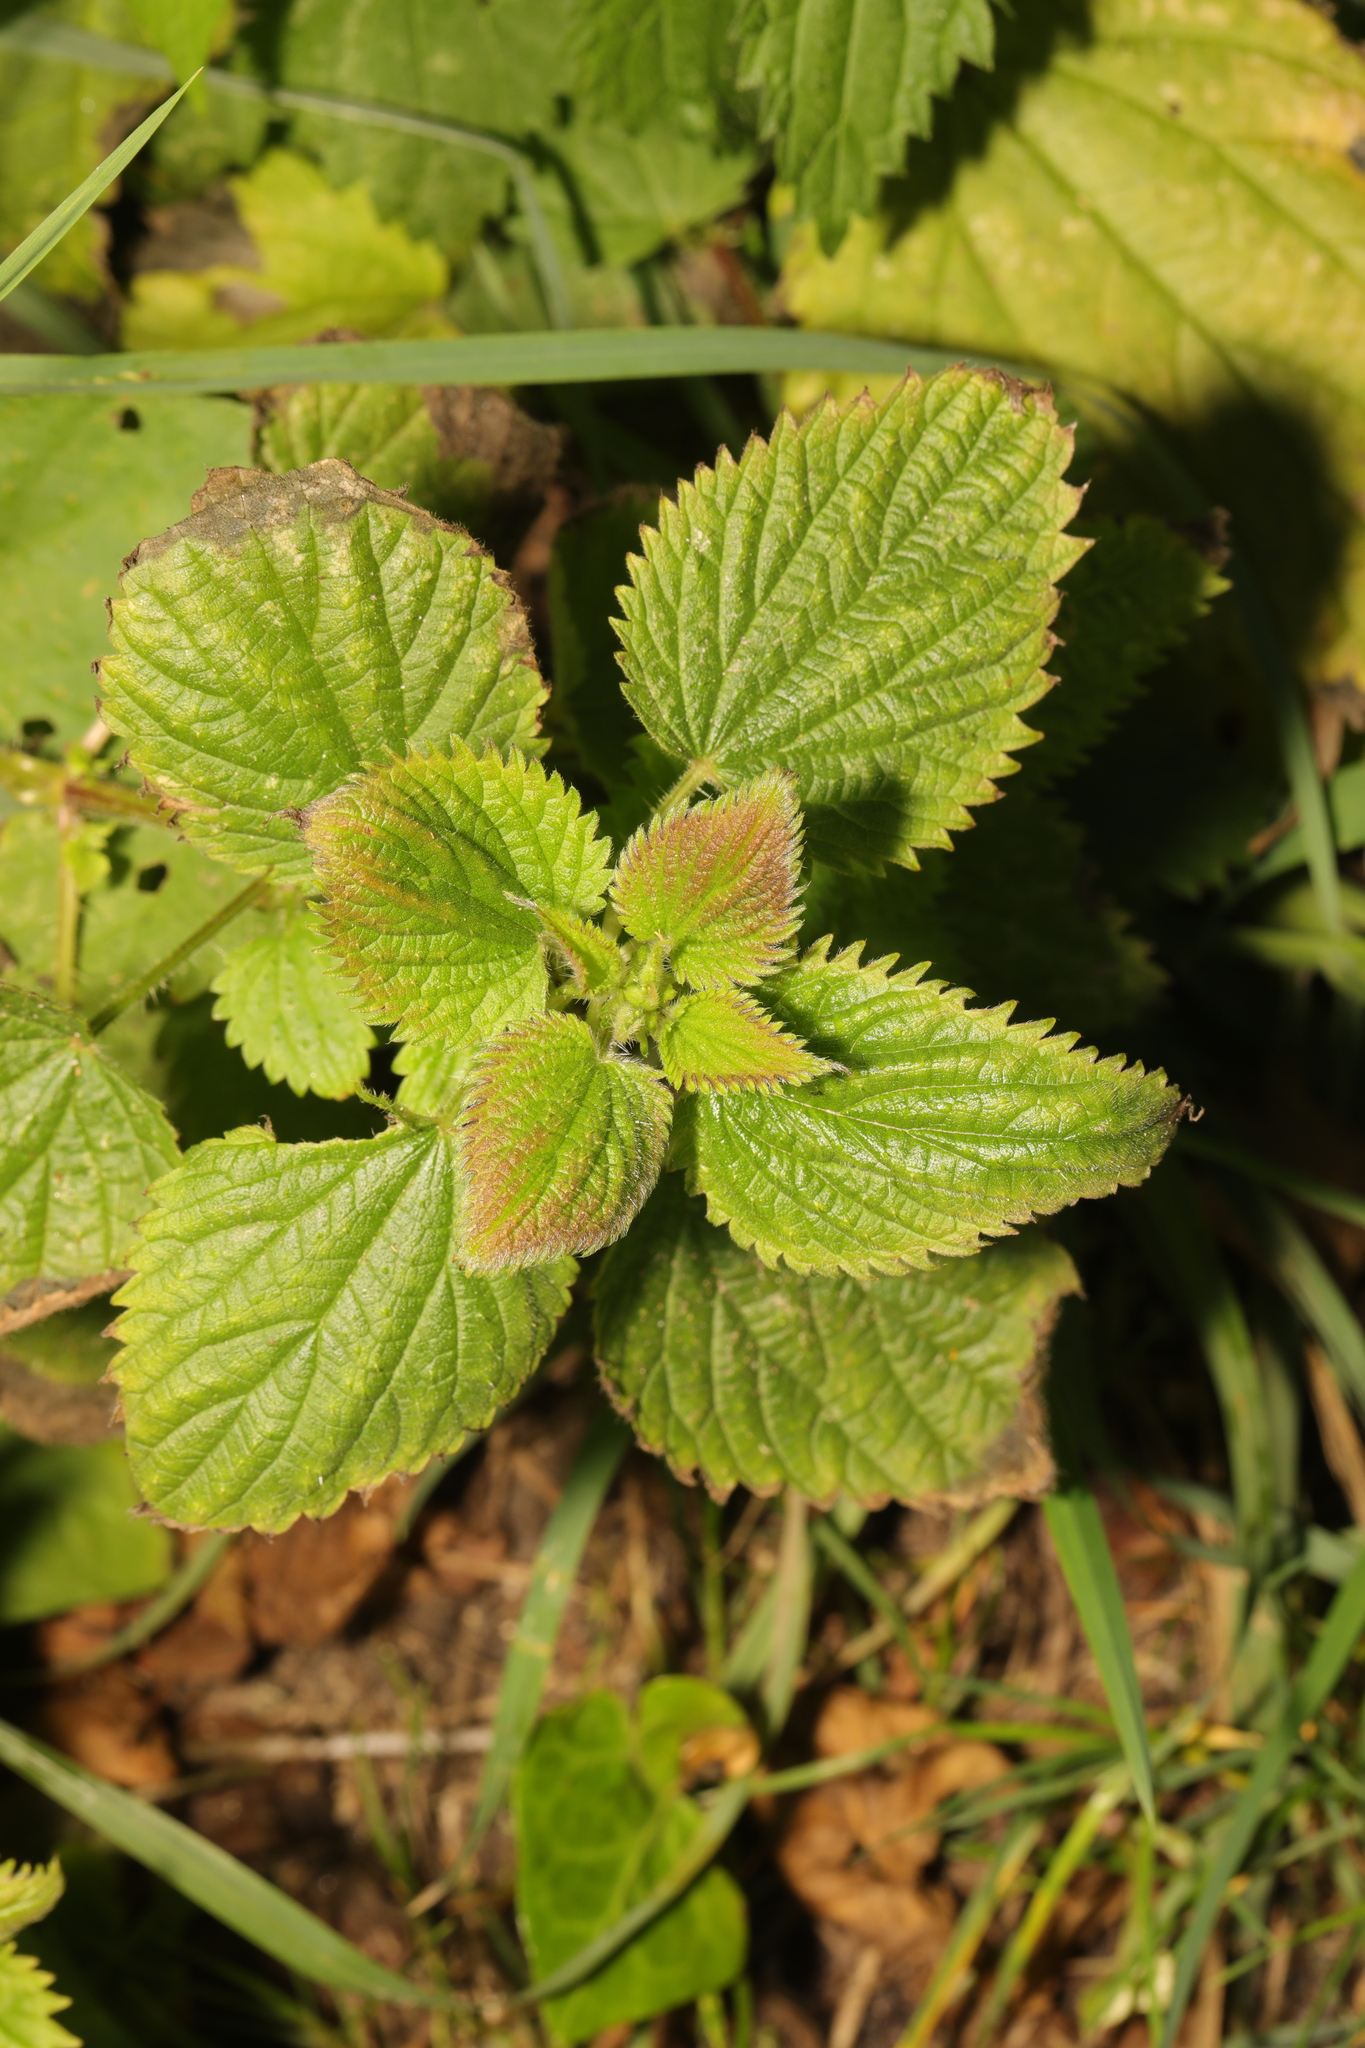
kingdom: Plantae
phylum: Tracheophyta
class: Magnoliopsida
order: Rosales
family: Urticaceae
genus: Urtica
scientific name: Urtica dioica
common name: Common nettle
